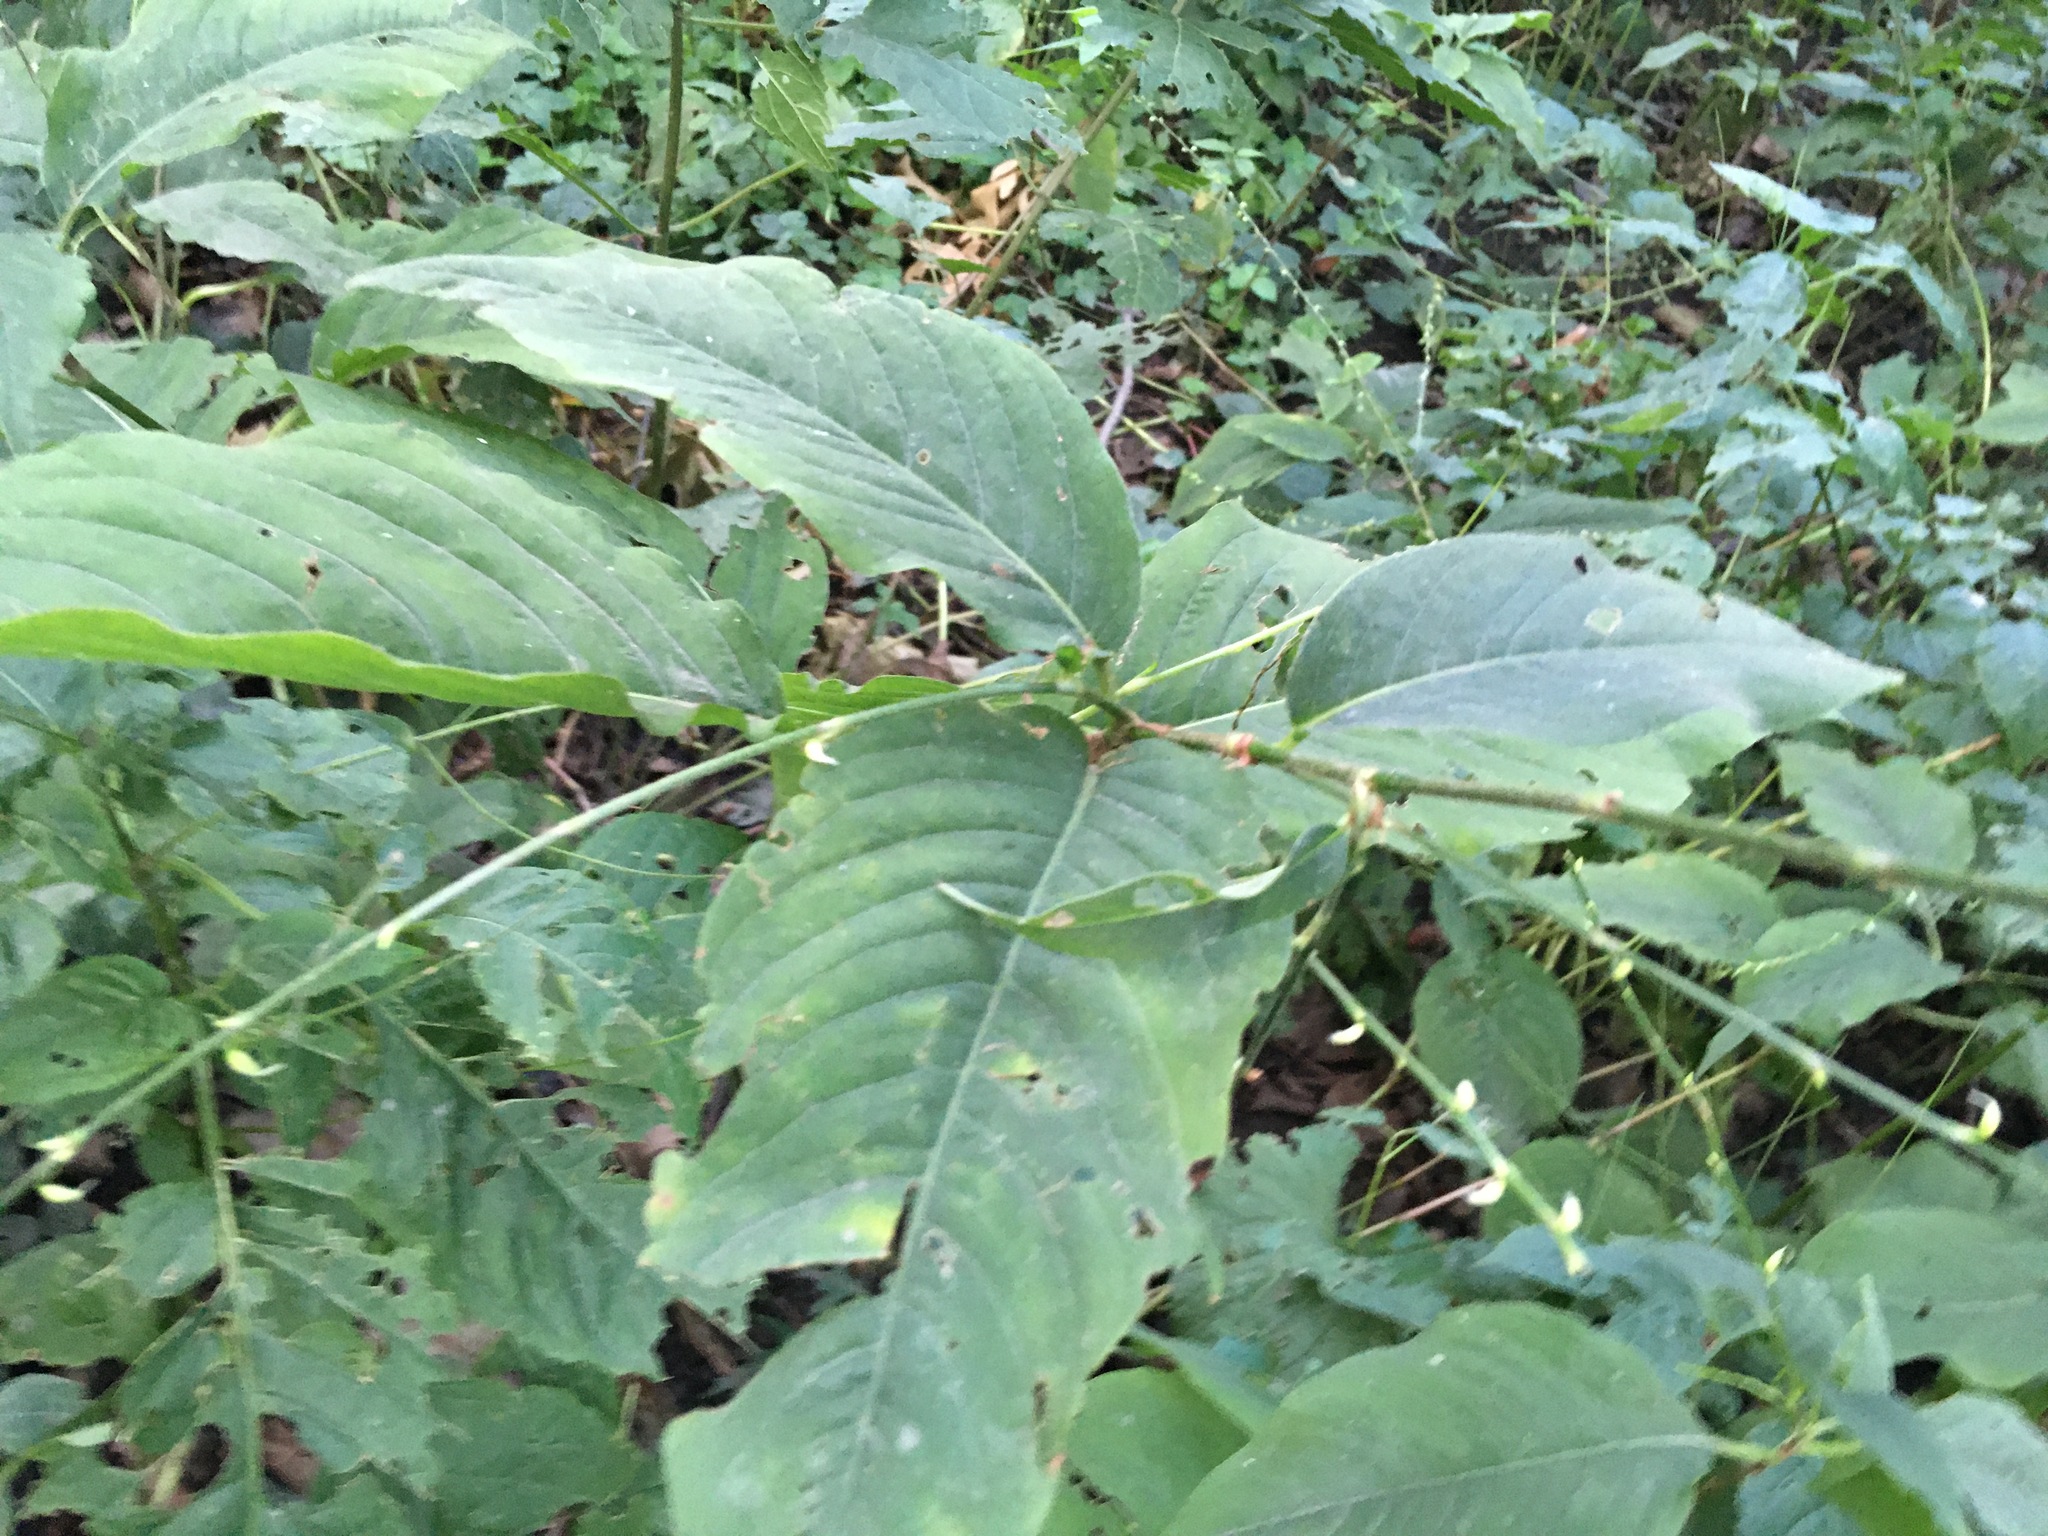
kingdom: Plantae
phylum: Tracheophyta
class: Magnoliopsida
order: Caryophyllales
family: Polygonaceae
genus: Persicaria
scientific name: Persicaria virginiana
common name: Jumpseed
